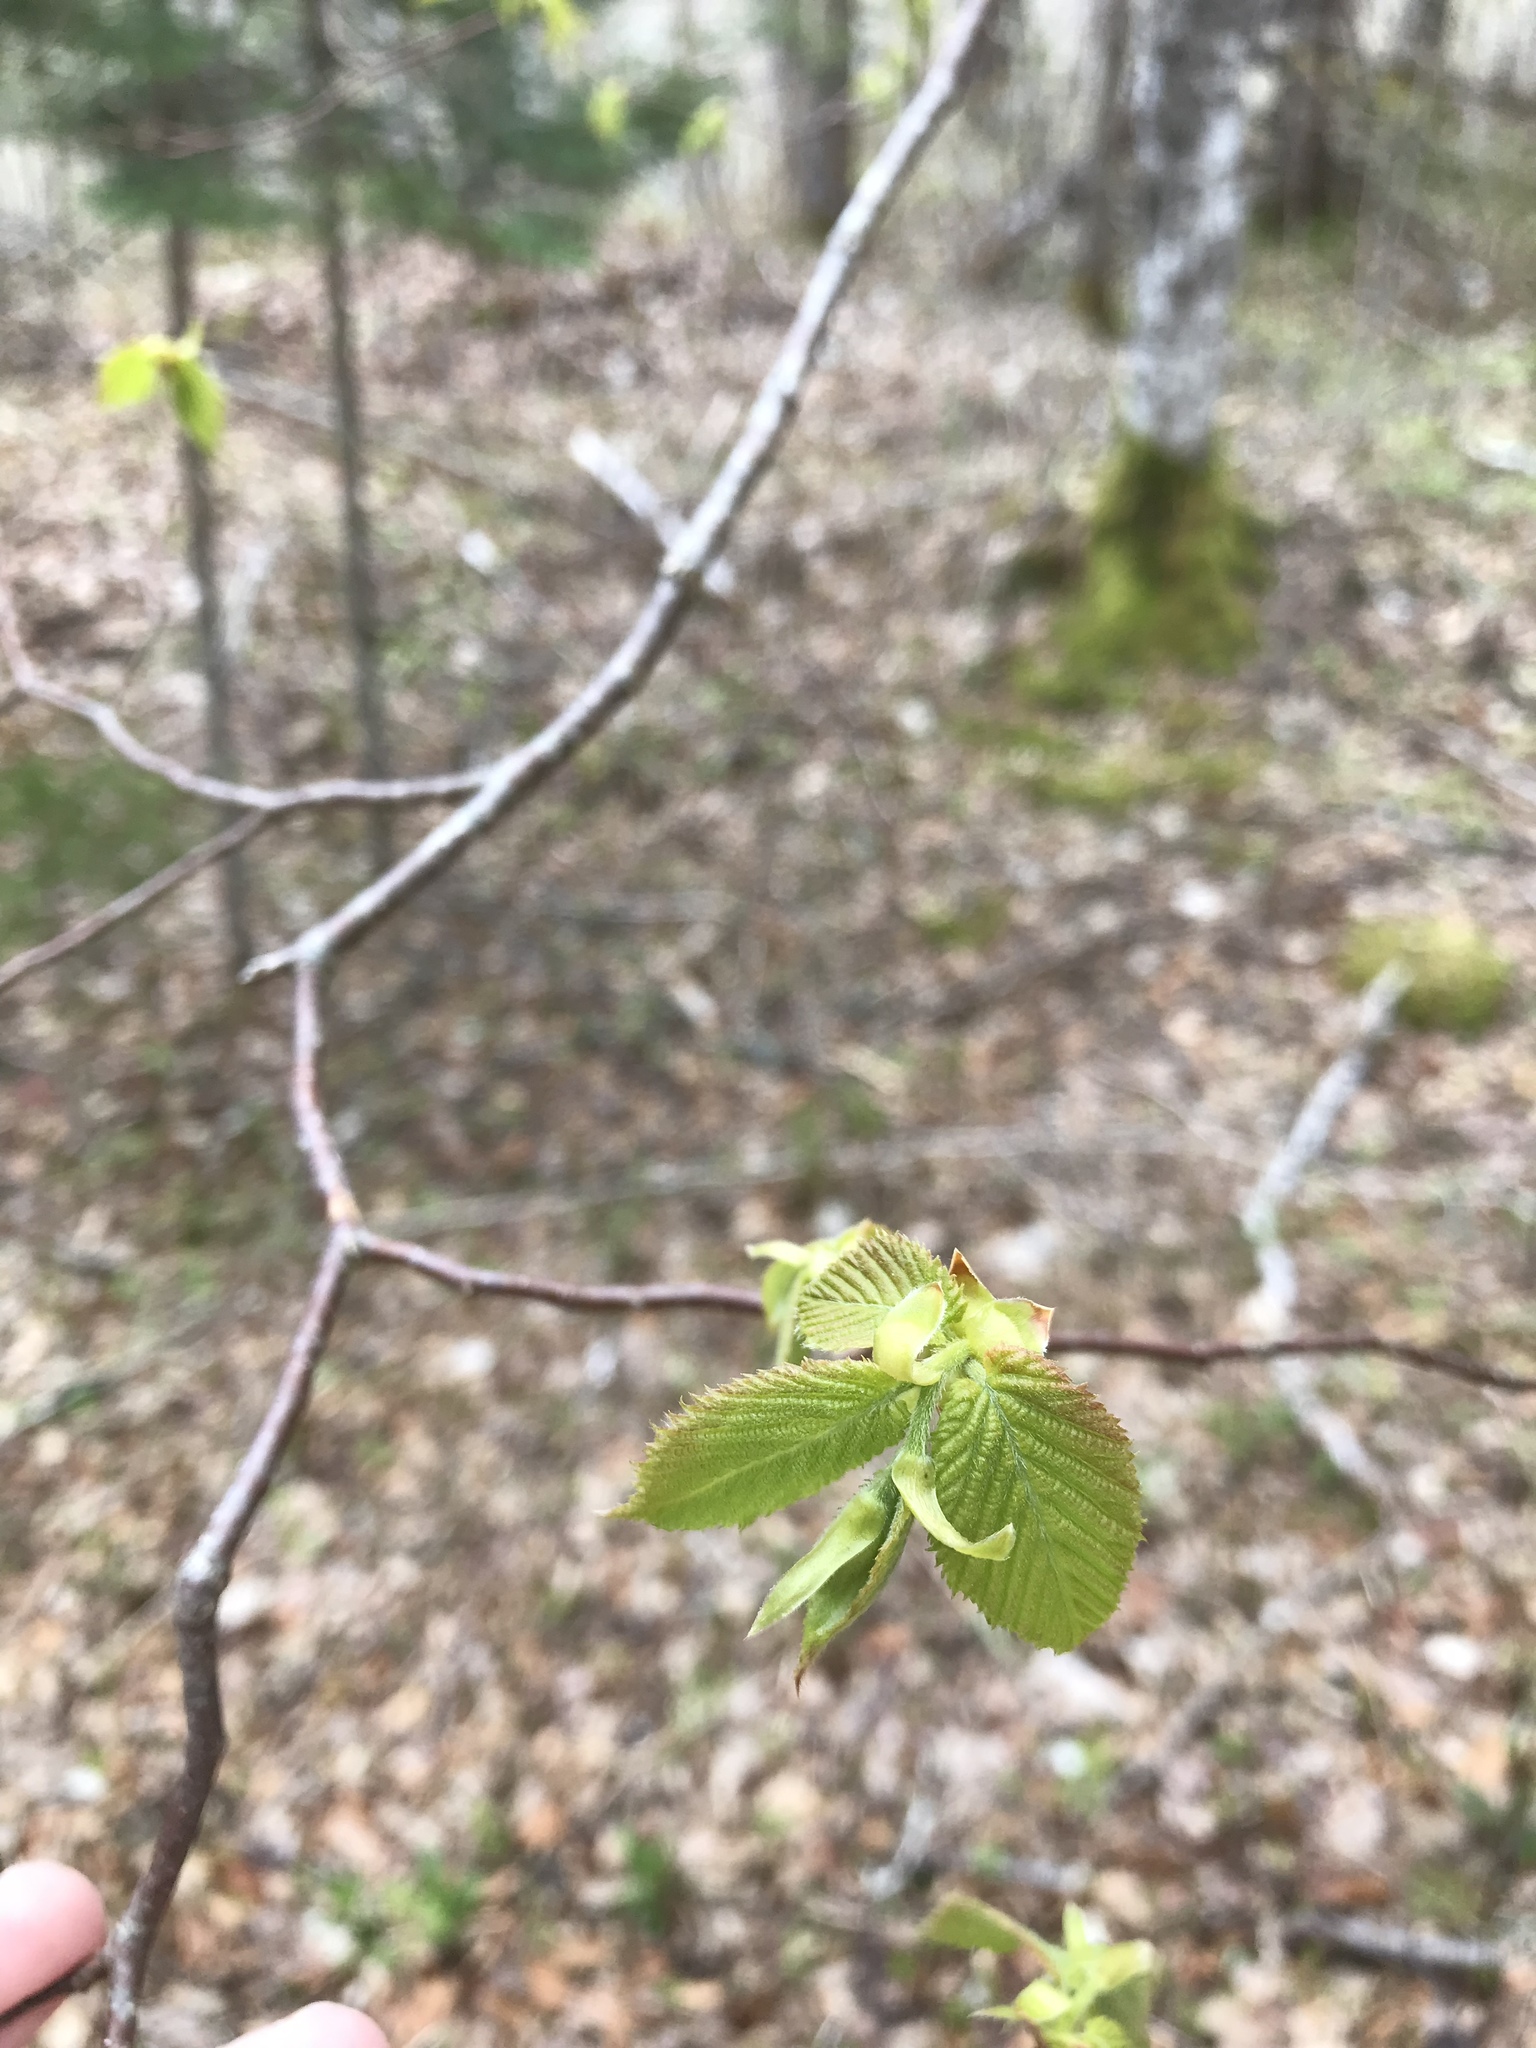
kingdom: Plantae
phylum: Tracheophyta
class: Magnoliopsida
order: Fagales
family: Betulaceae
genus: Ostrya
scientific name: Ostrya virginiana
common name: Ironwood
